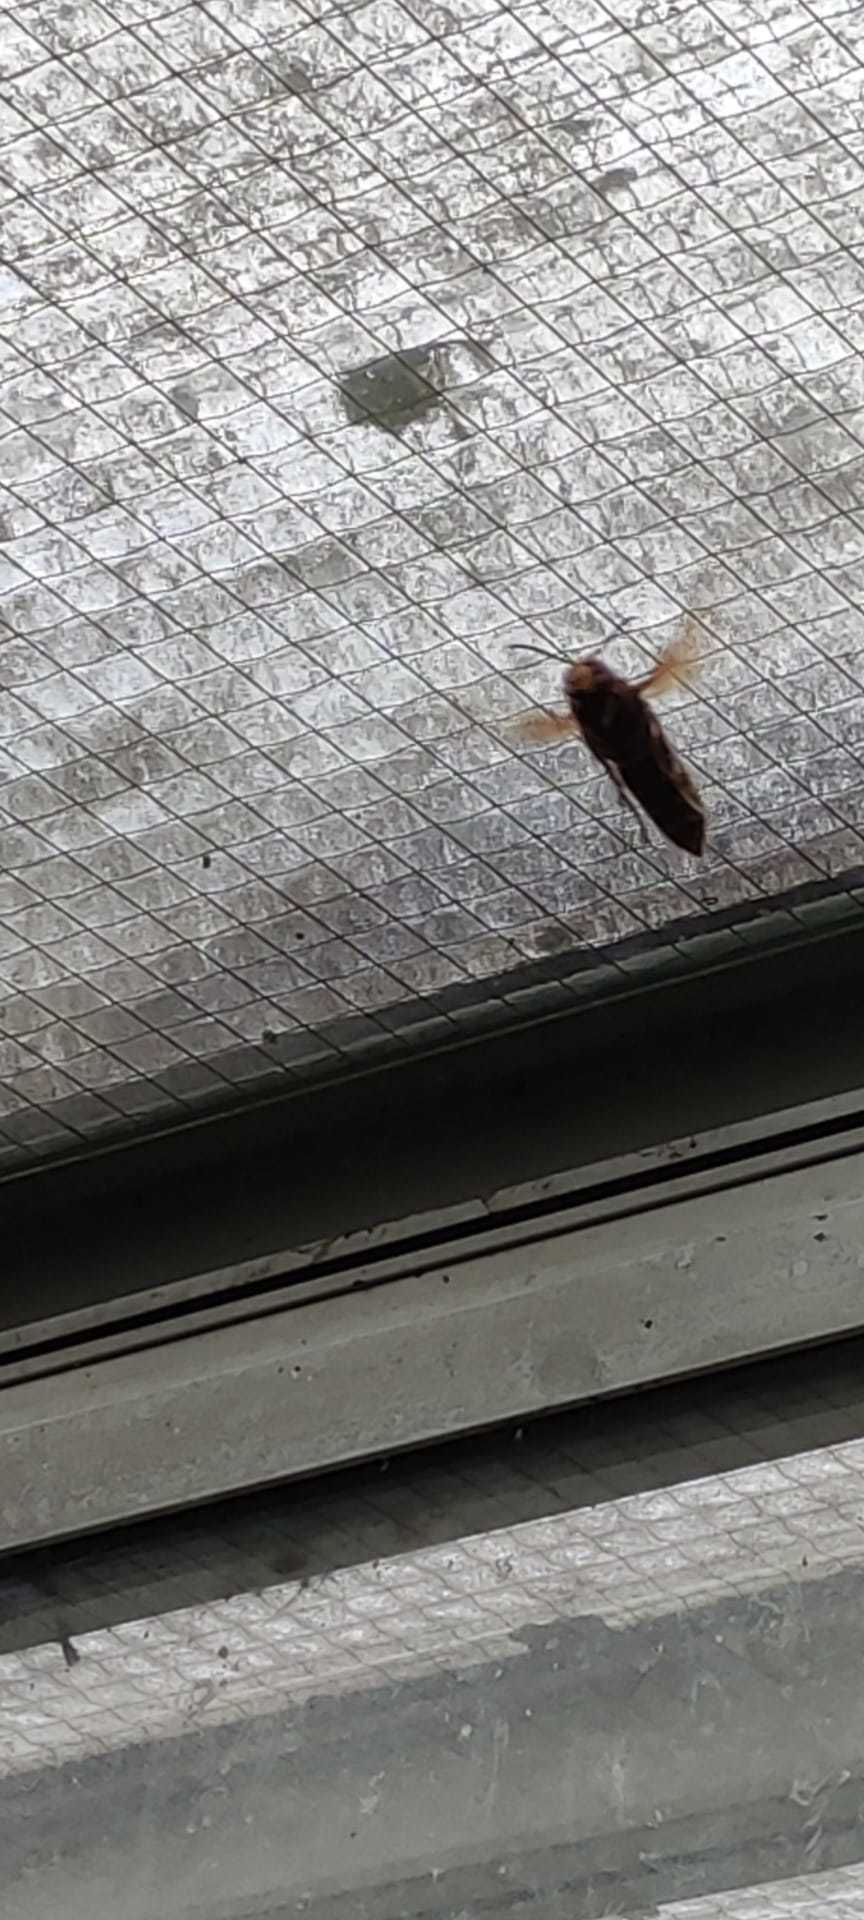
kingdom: Animalia
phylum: Arthropoda
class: Insecta
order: Hymenoptera
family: Vespidae
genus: Vespa
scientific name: Vespa crabro
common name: Hornet
